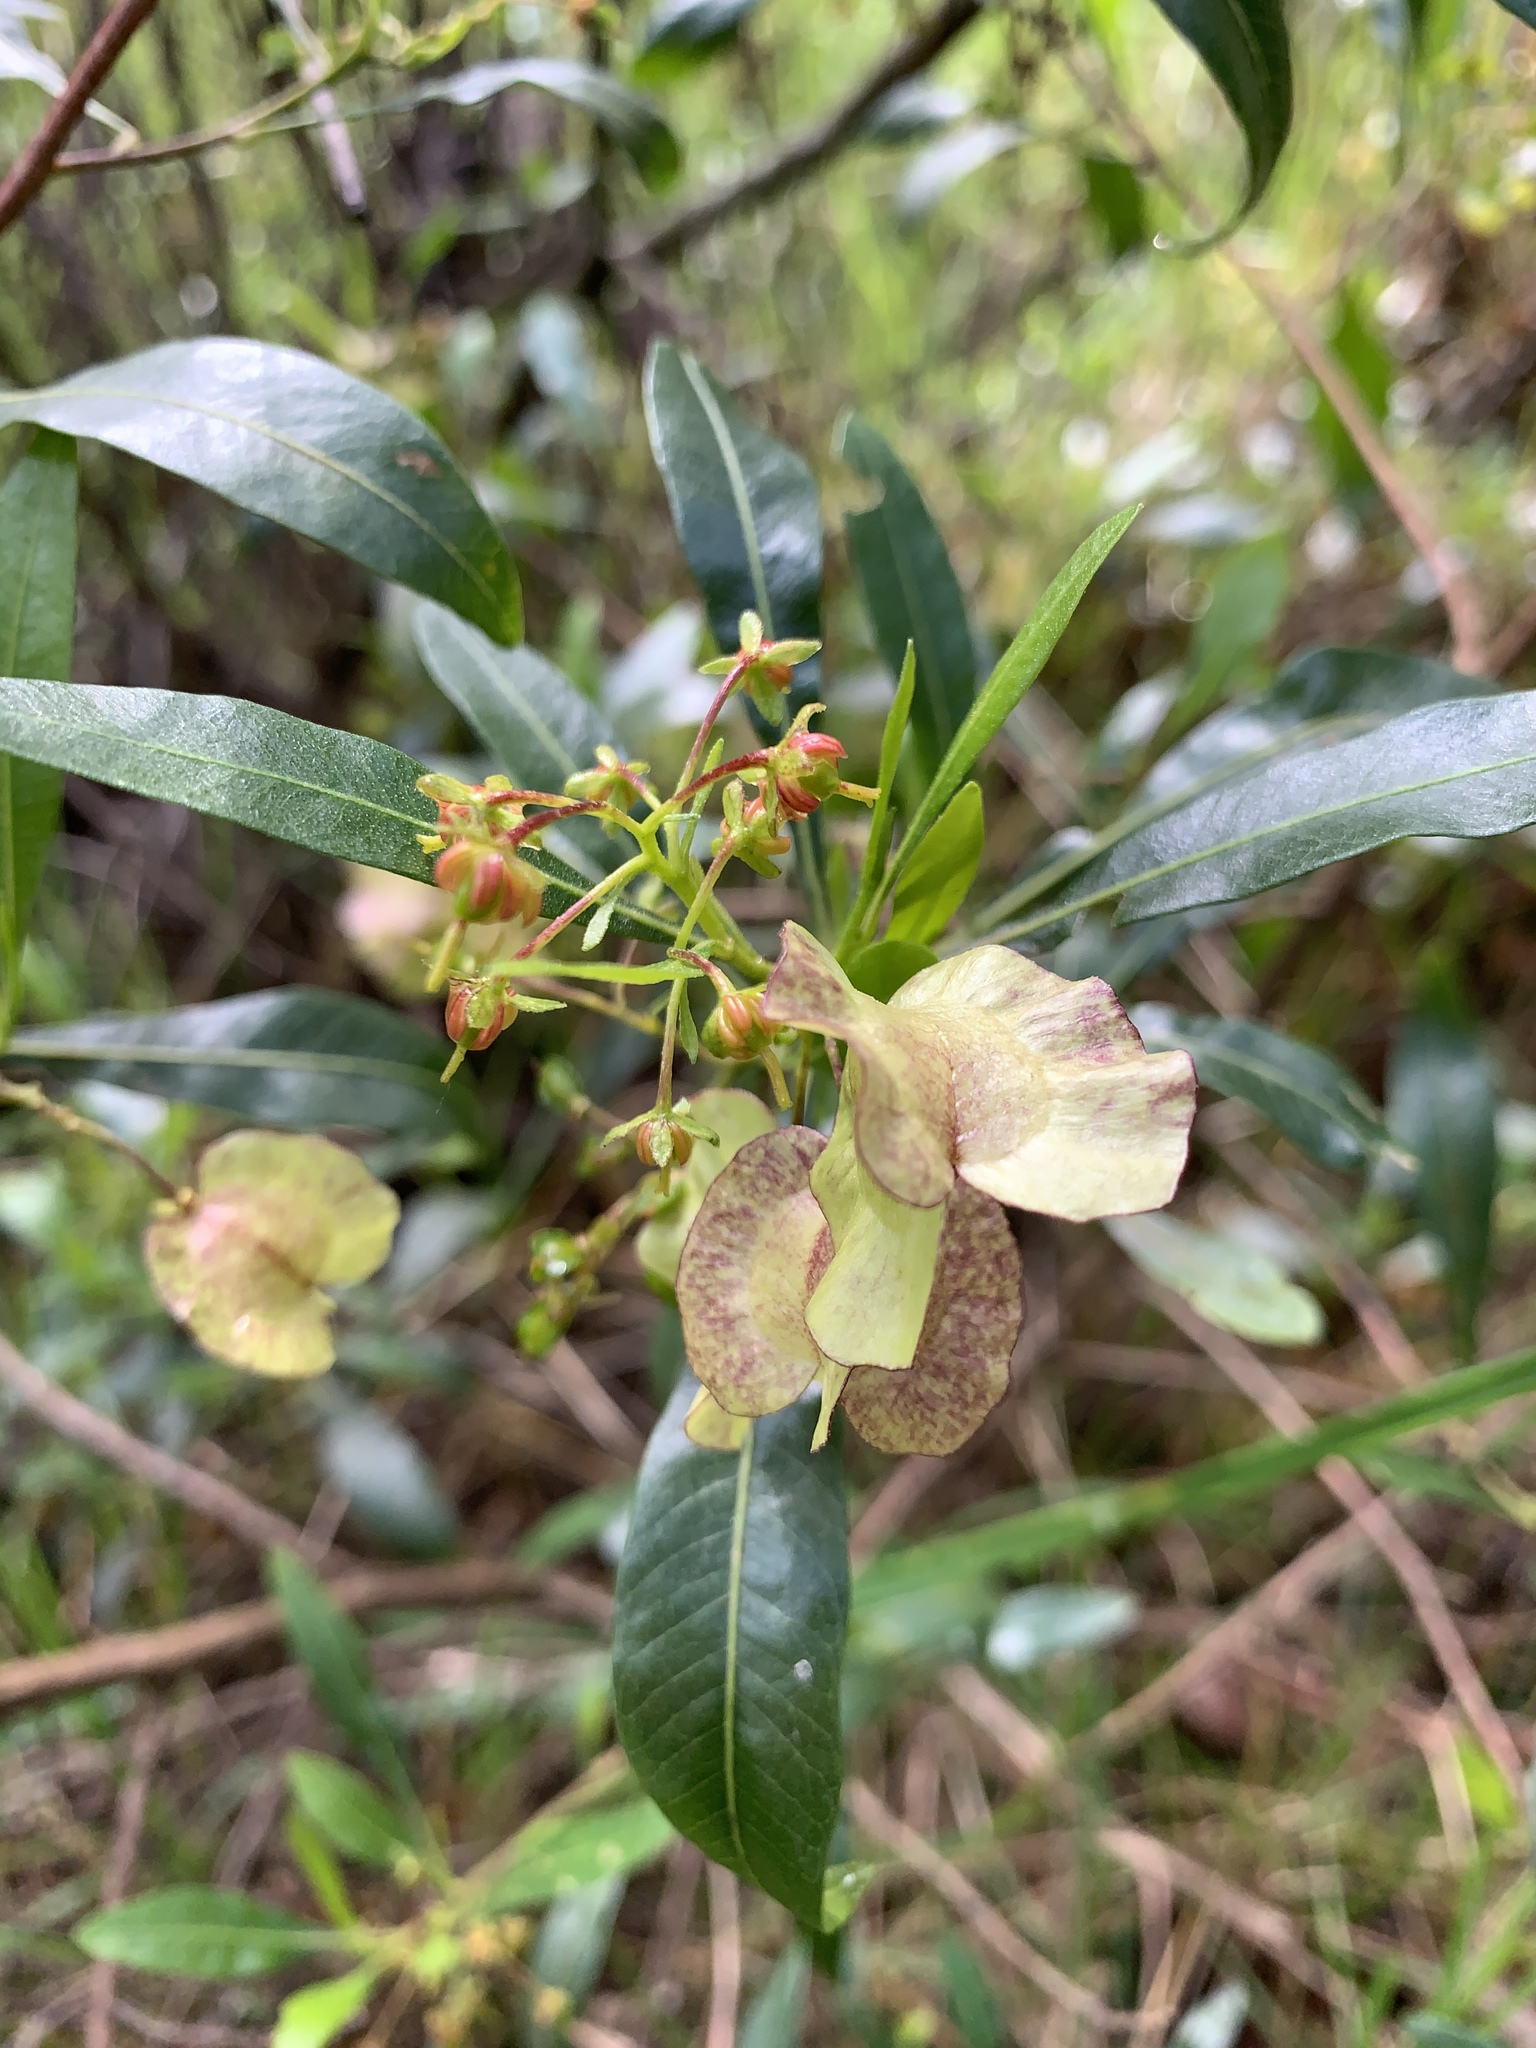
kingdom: Plantae
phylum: Tracheophyta
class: Magnoliopsida
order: Sapindales
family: Sapindaceae
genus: Dodonaea
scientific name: Dodonaea viscosa
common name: Hopbush
